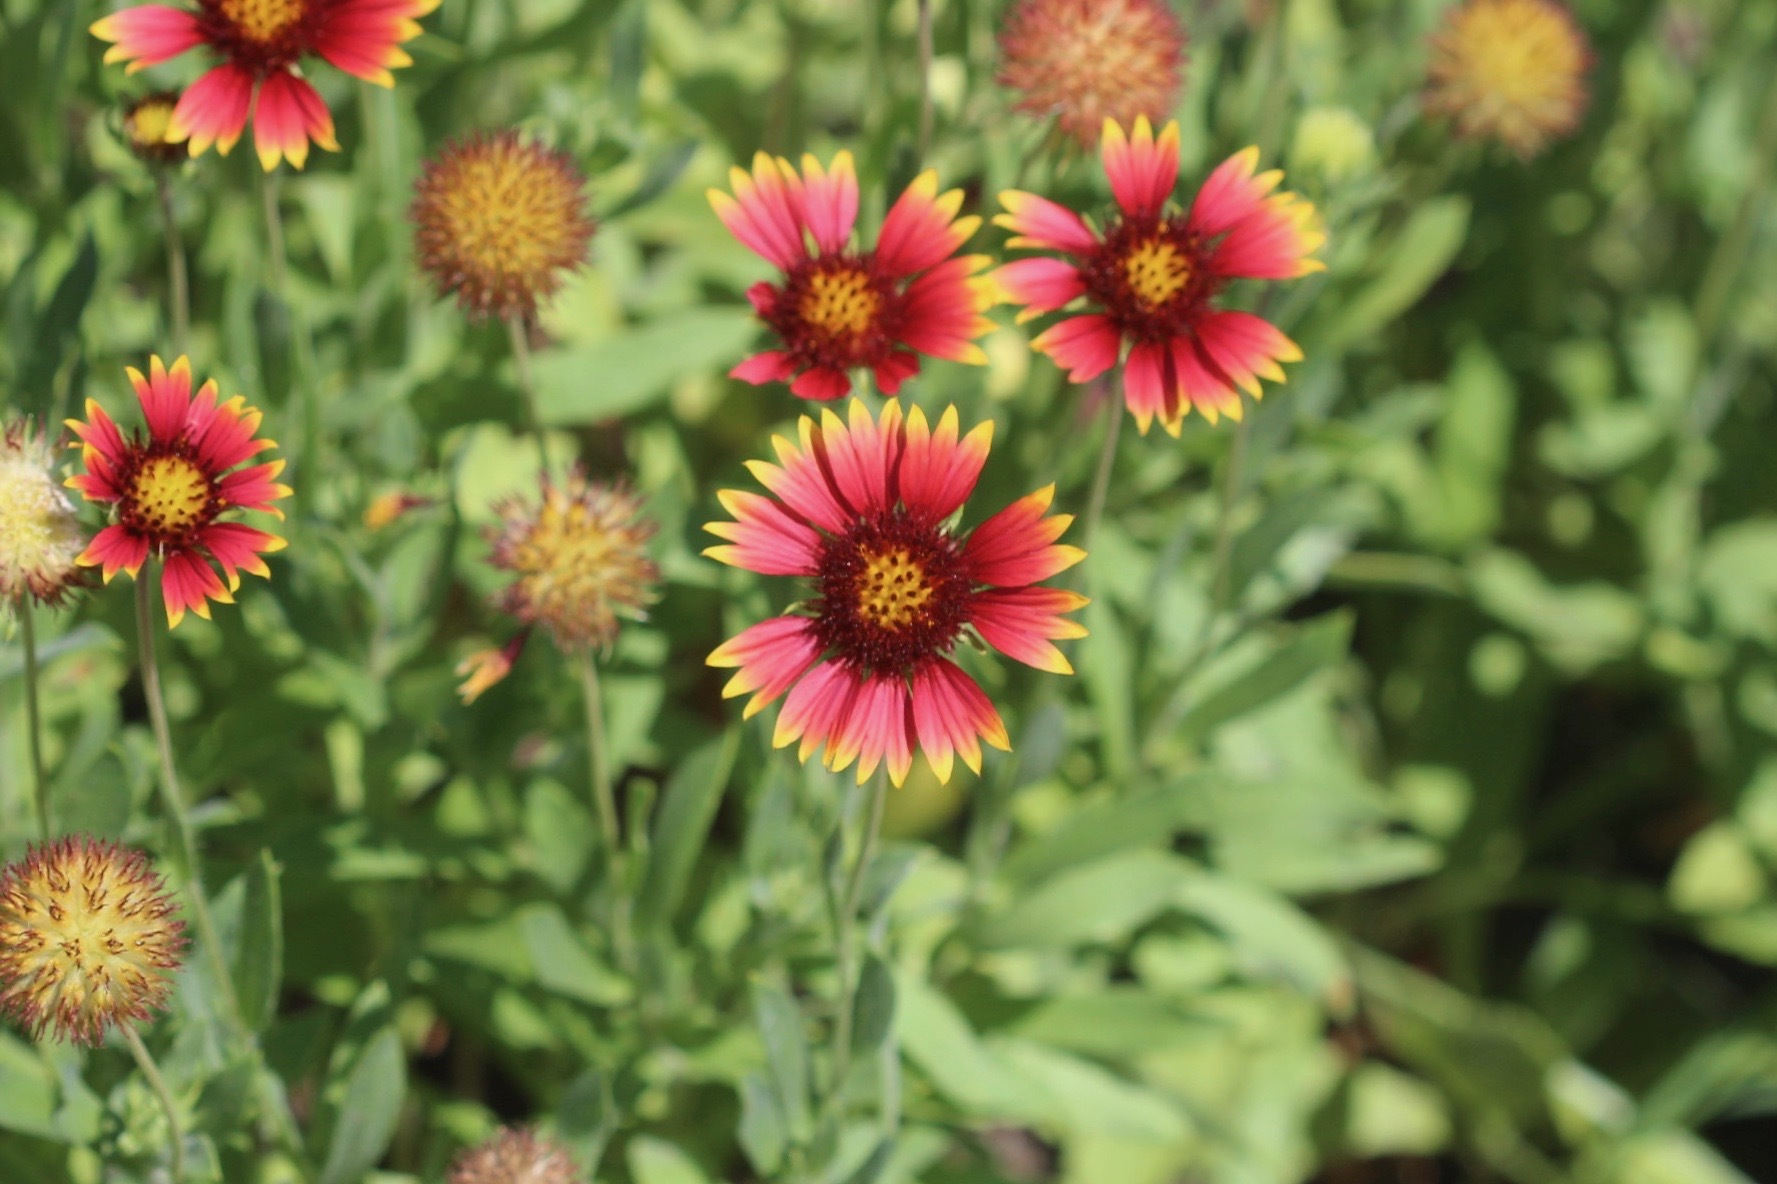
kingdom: Plantae
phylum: Tracheophyta
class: Magnoliopsida
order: Asterales
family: Asteraceae
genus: Gaillardia
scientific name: Gaillardia pulchella
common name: Firewheel
